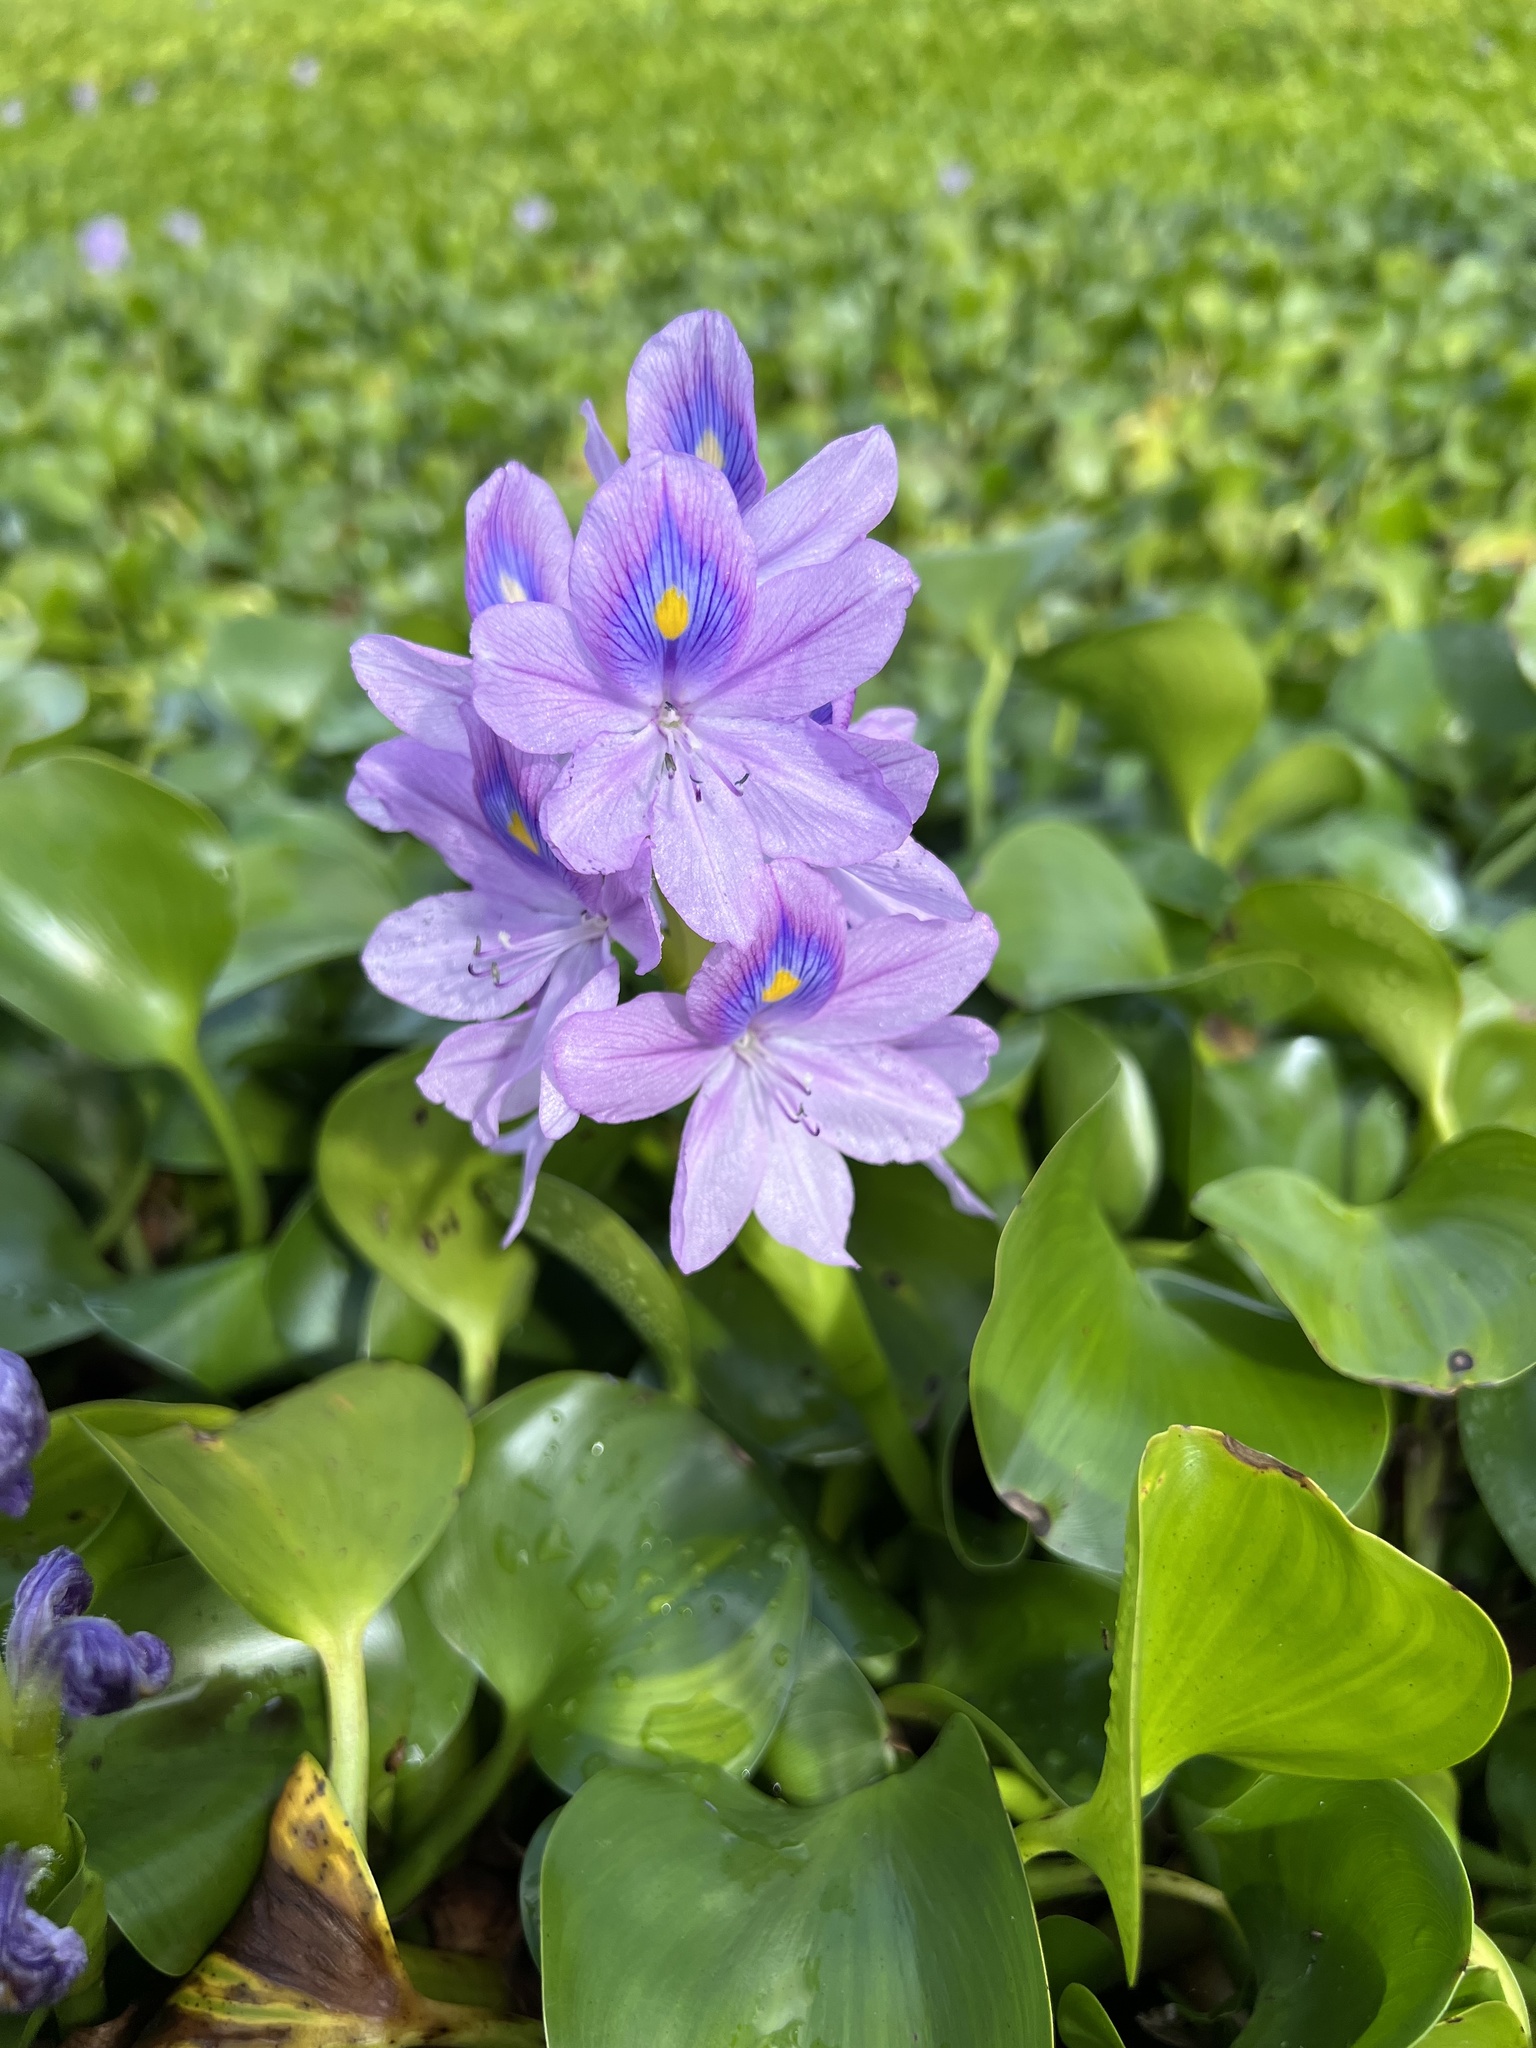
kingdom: Plantae
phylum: Tracheophyta
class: Liliopsida
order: Commelinales
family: Pontederiaceae
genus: Pontederia
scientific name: Pontederia crassipes
